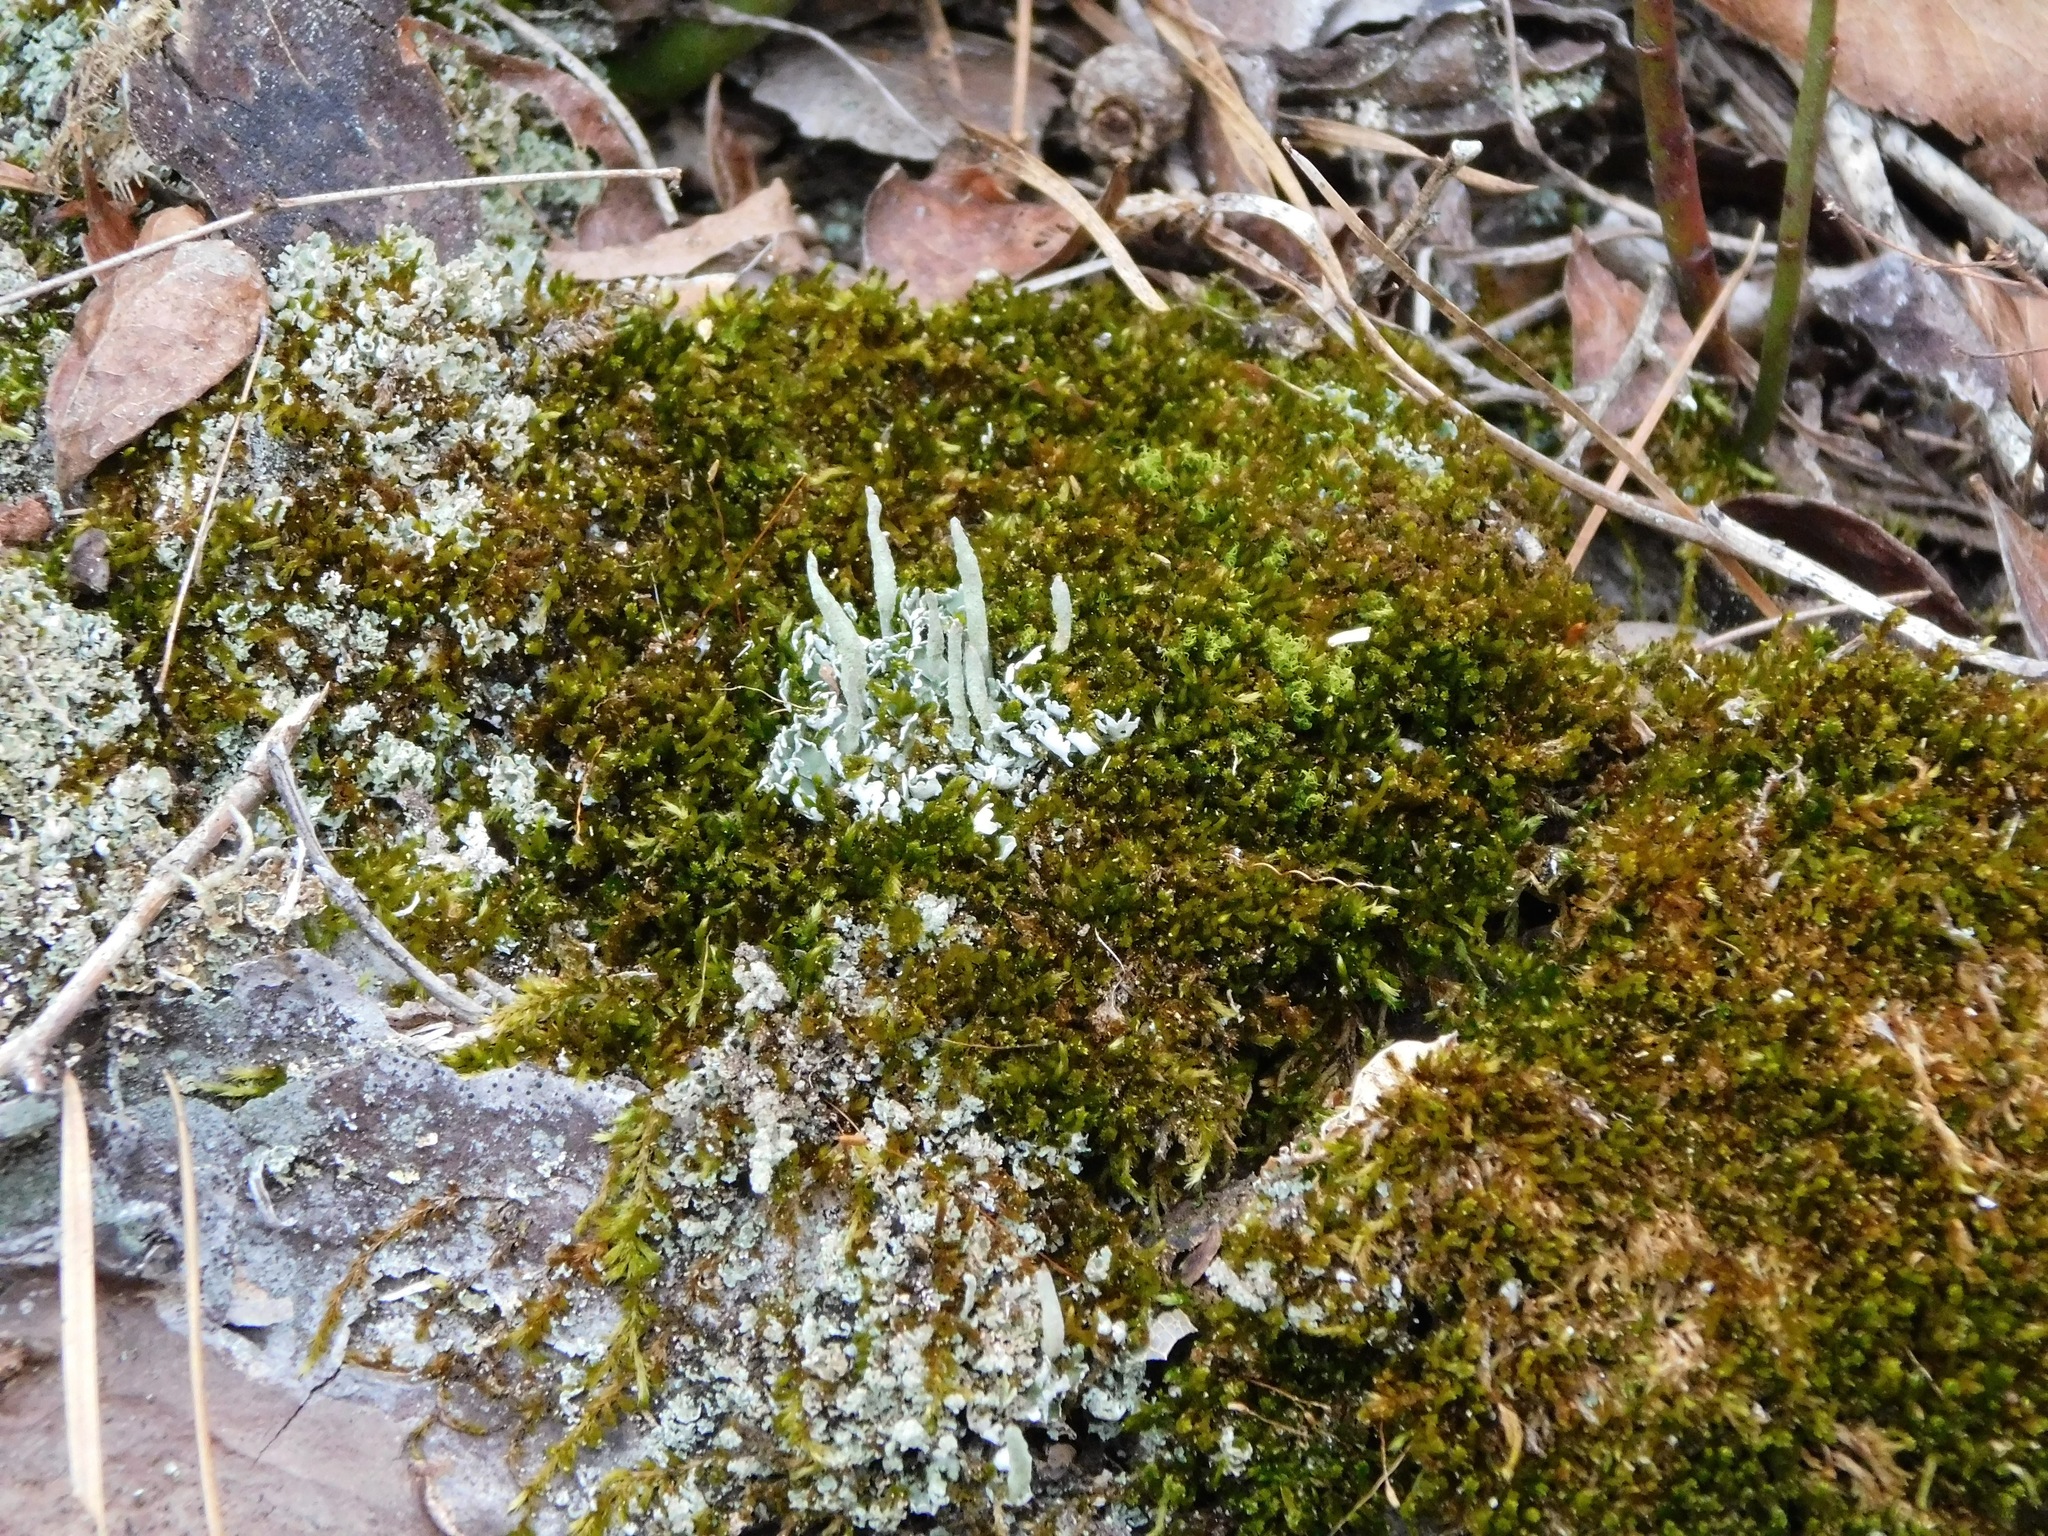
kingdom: Fungi
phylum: Ascomycota
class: Lecanoromycetes
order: Lecanorales
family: Cladoniaceae
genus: Cladonia
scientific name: Cladonia ochrochlora
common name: Smooth-footed powderhorn
